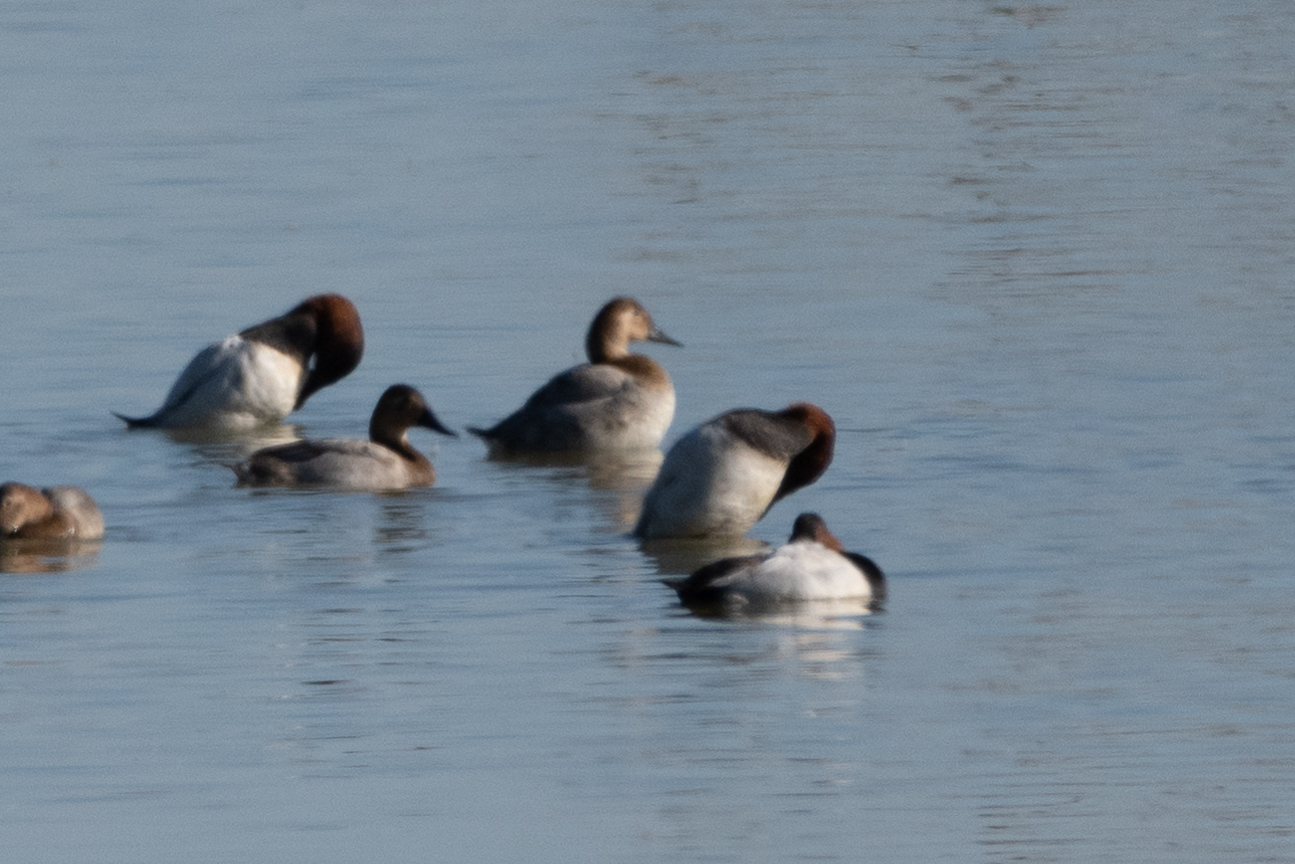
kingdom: Animalia
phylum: Chordata
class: Aves
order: Anseriformes
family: Anatidae
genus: Aythya
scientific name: Aythya valisineria
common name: Canvasback
